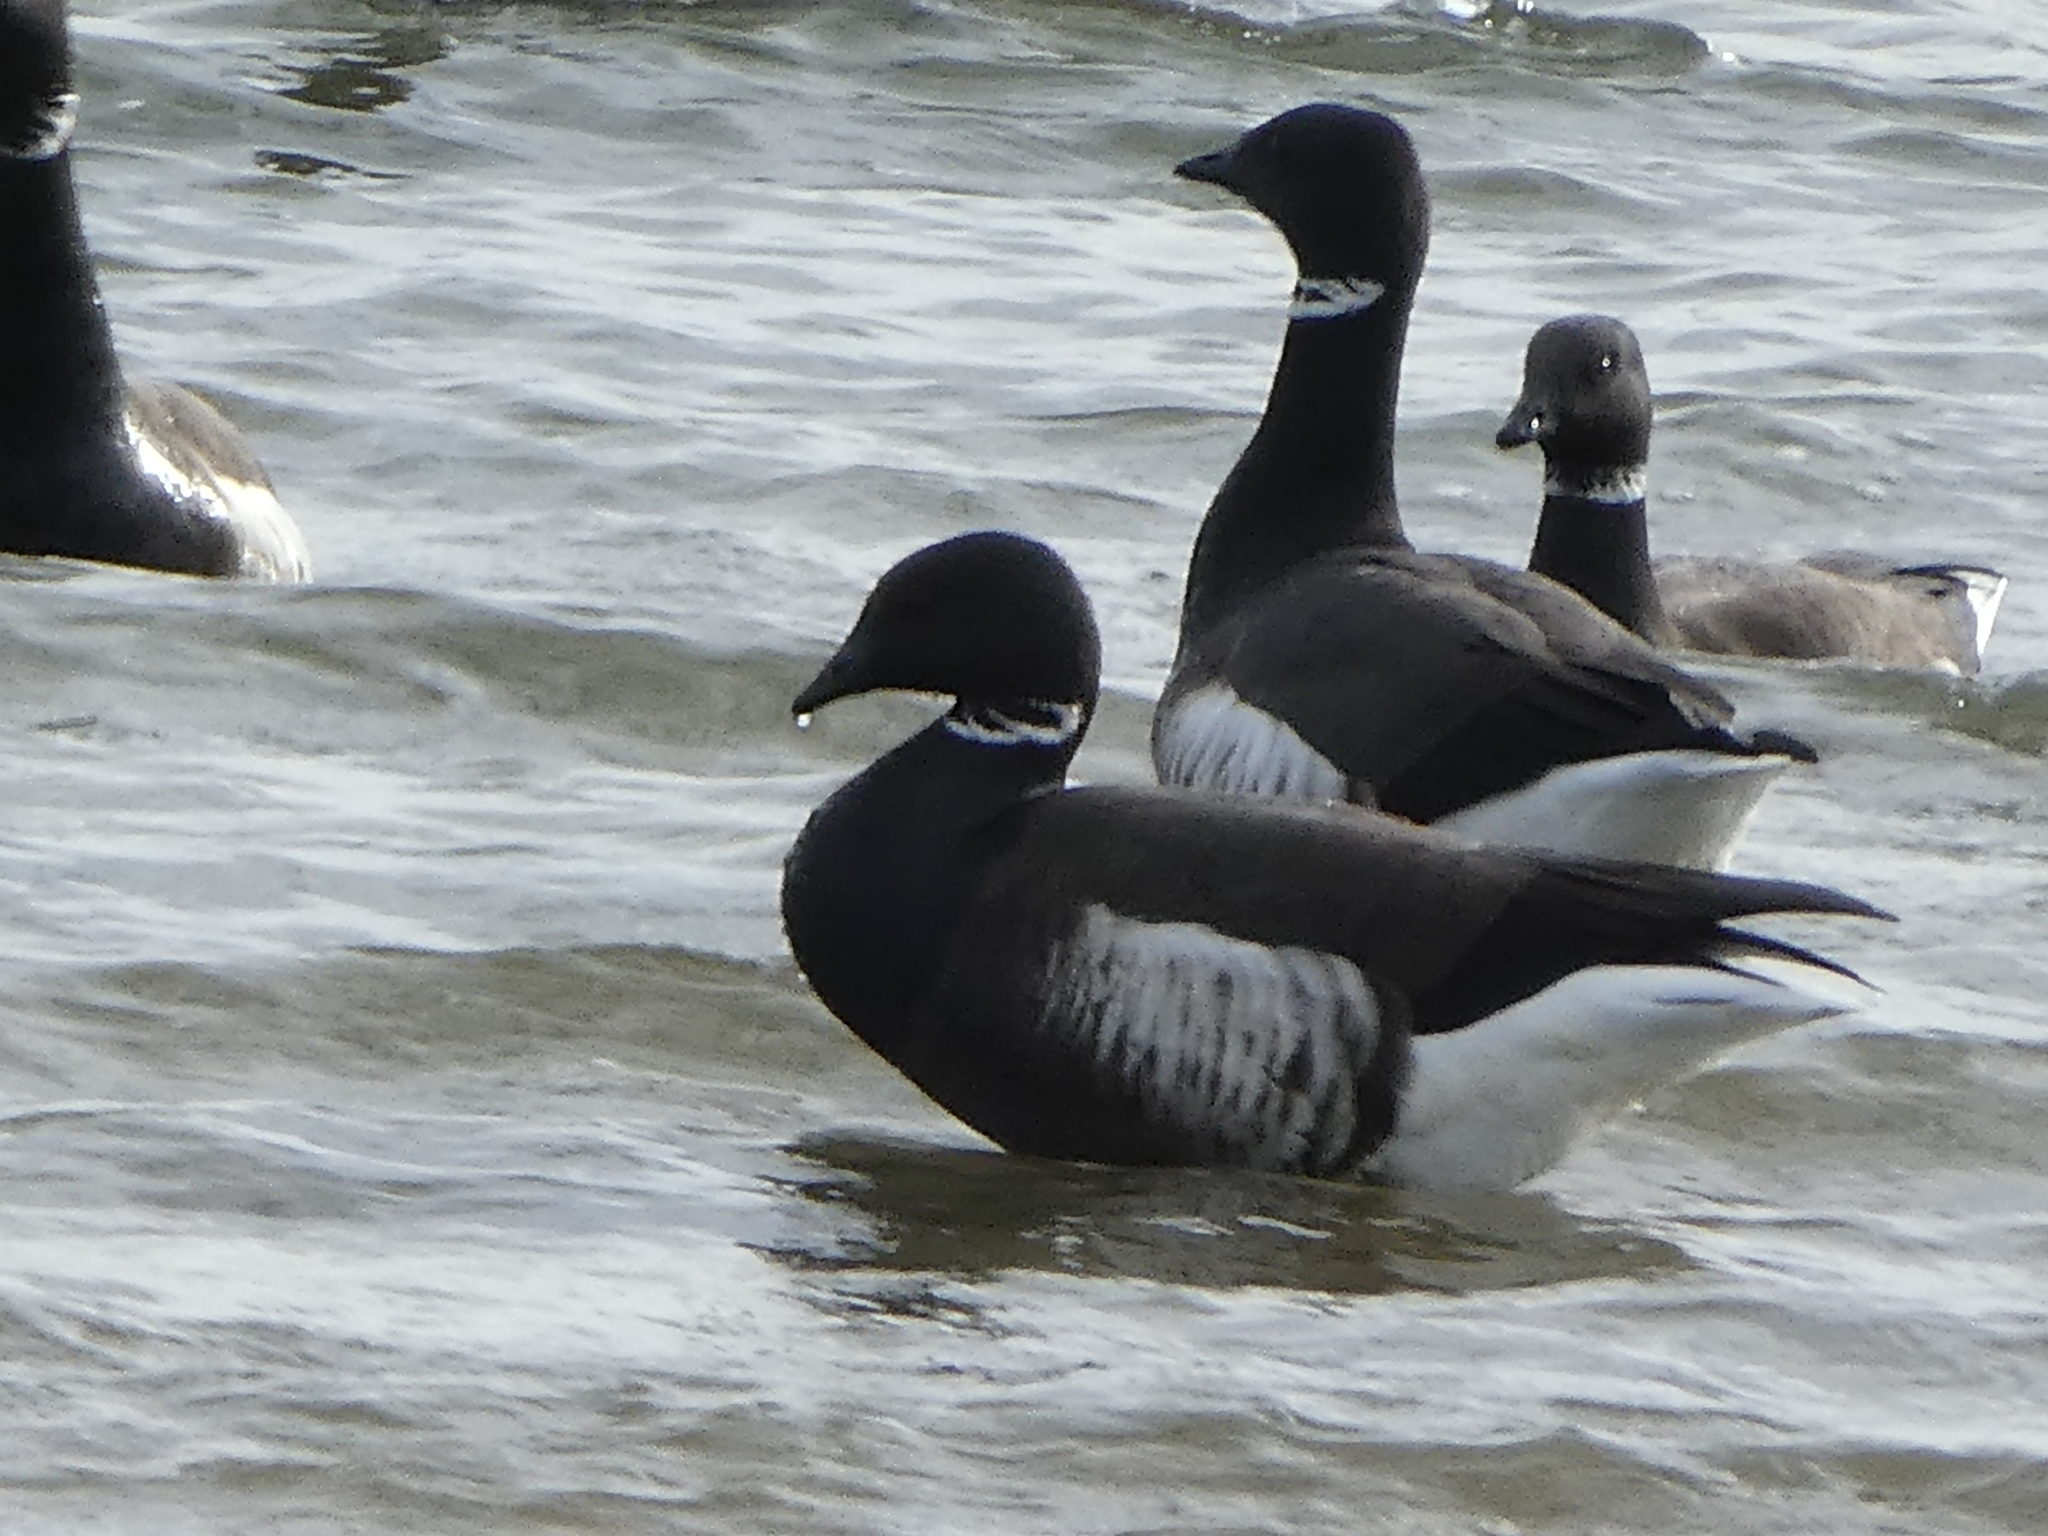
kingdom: Animalia
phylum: Chordata
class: Aves
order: Anseriformes
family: Anatidae
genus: Branta
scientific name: Branta bernicla
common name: Brant goose
